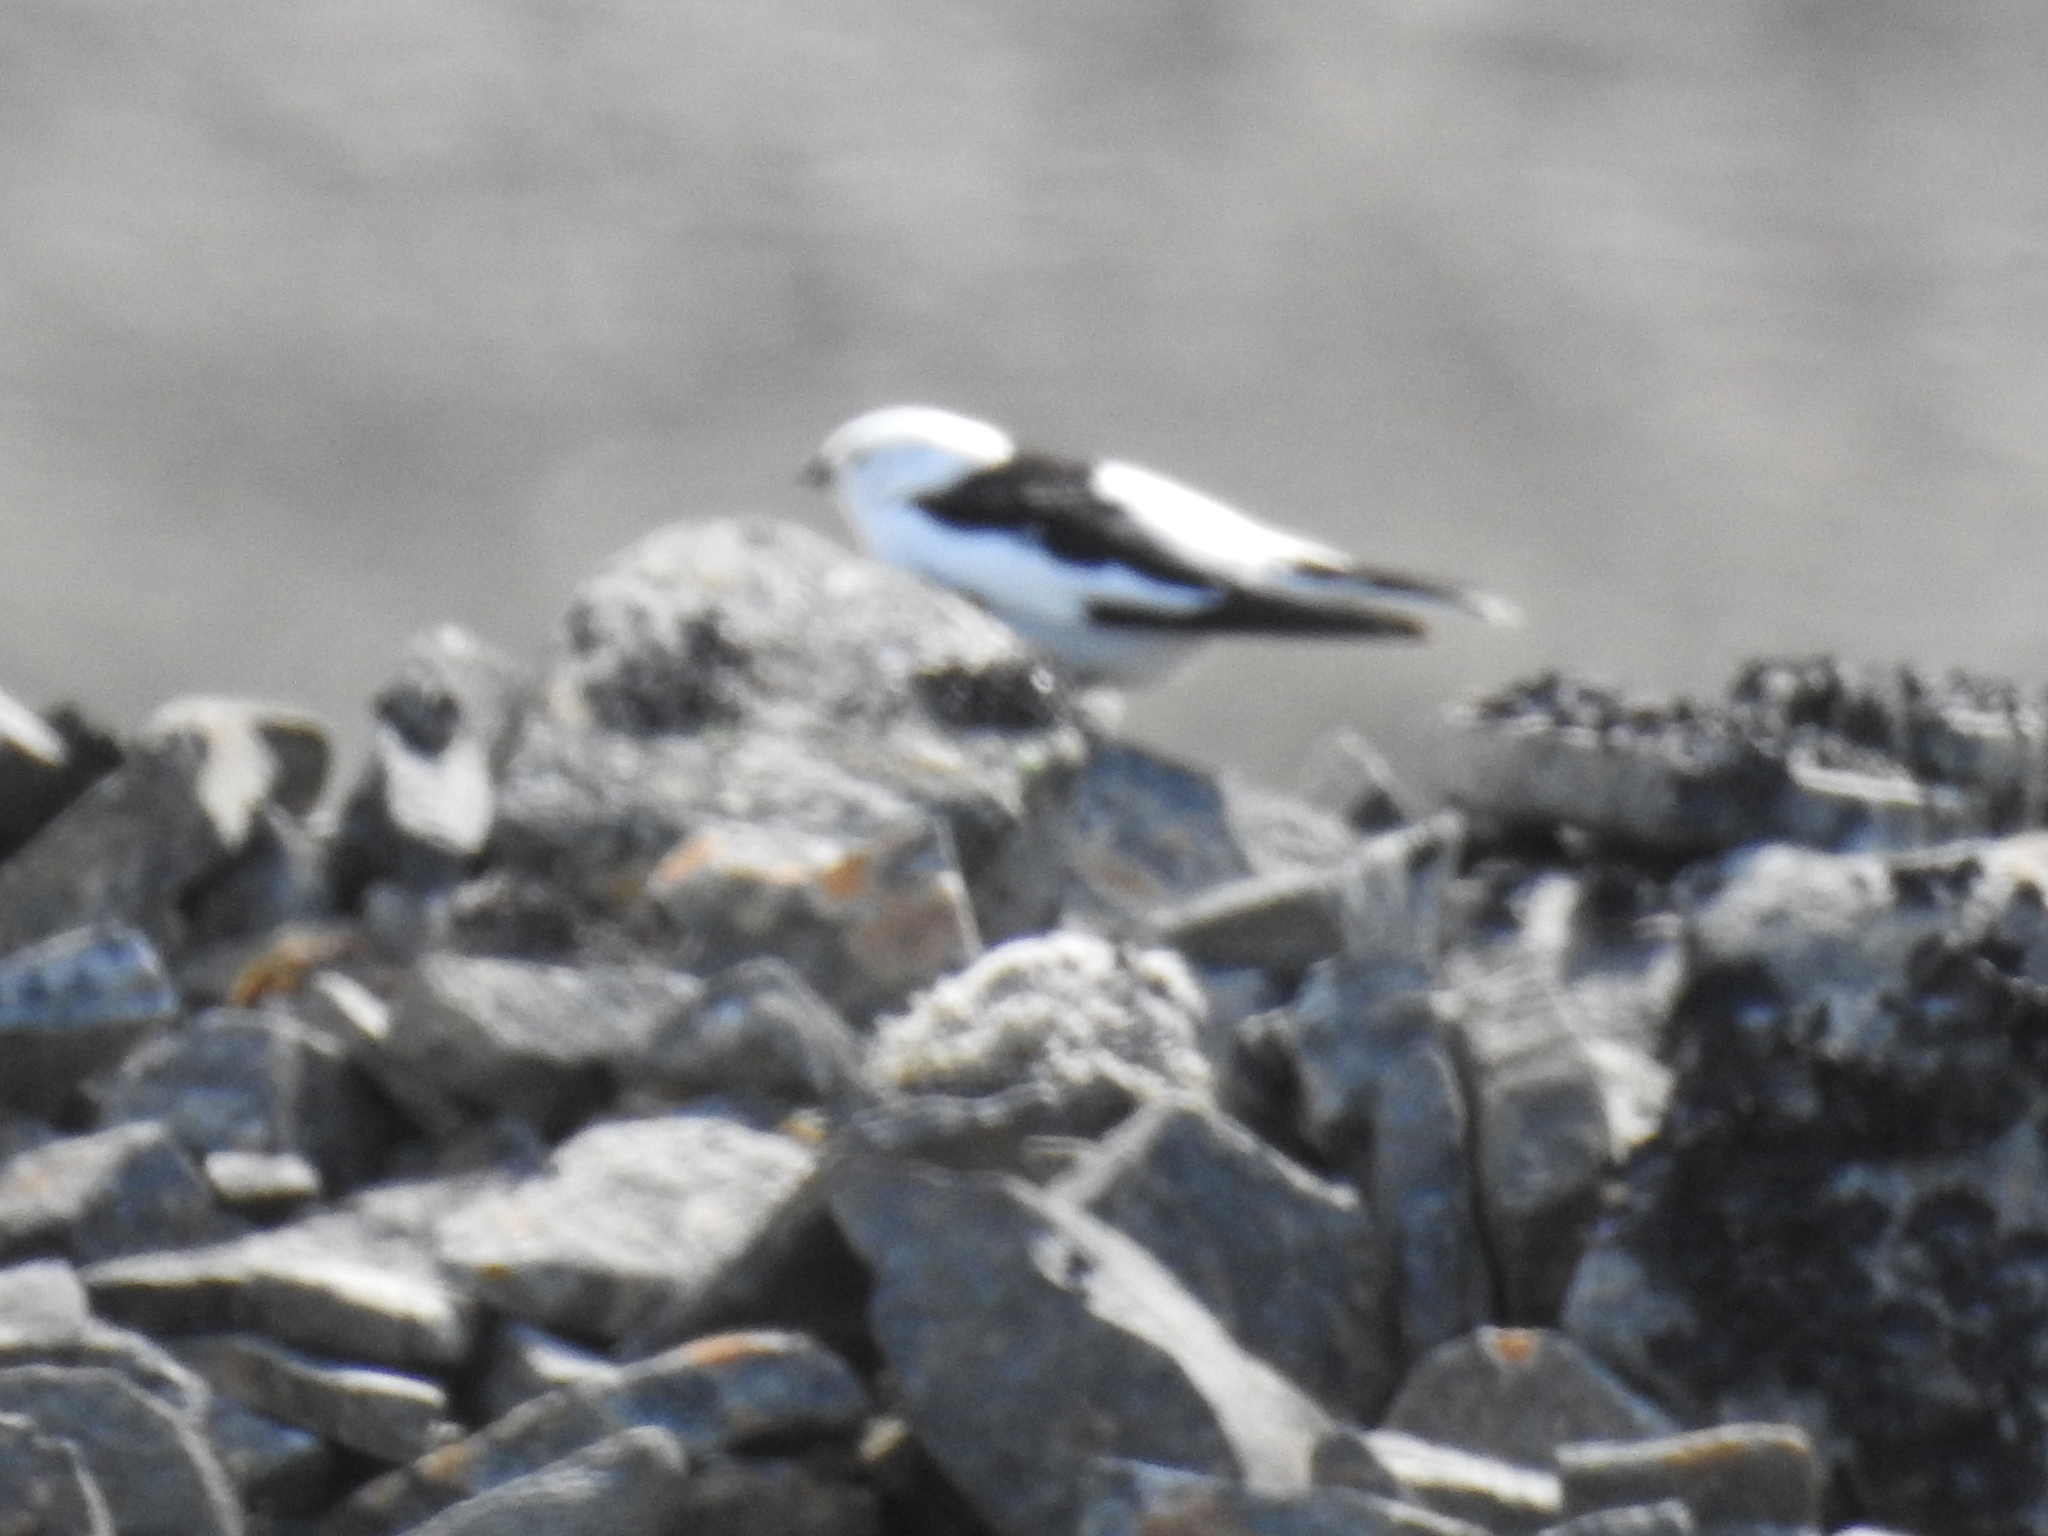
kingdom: Animalia
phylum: Chordata
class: Aves
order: Passeriformes
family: Calcariidae
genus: Plectrophenax
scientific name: Plectrophenax nivalis
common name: Snow bunting
